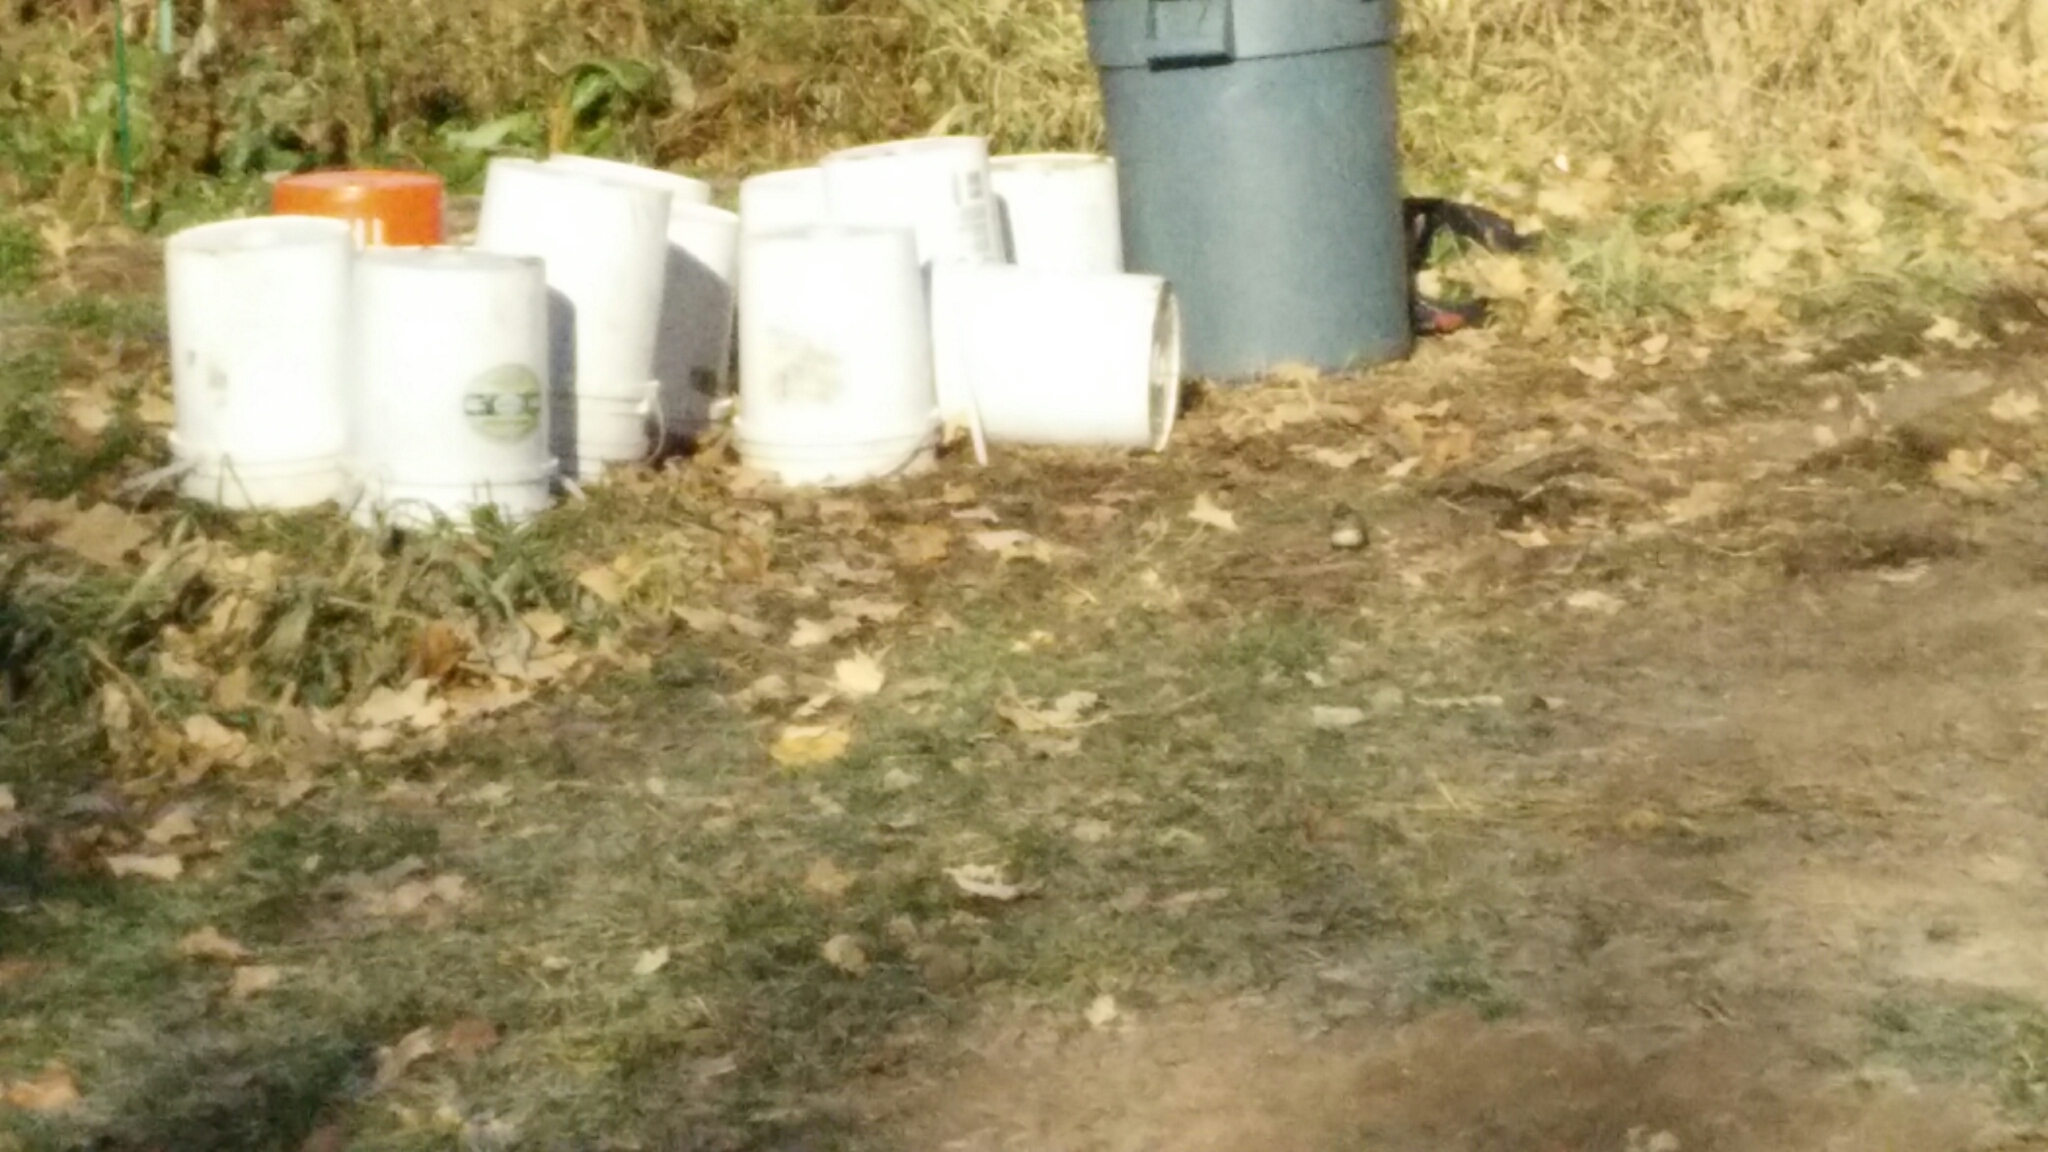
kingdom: Animalia
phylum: Chordata
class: Aves
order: Passeriformes
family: Passerellidae
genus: Junco
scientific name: Junco hyemalis
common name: Dark-eyed junco
